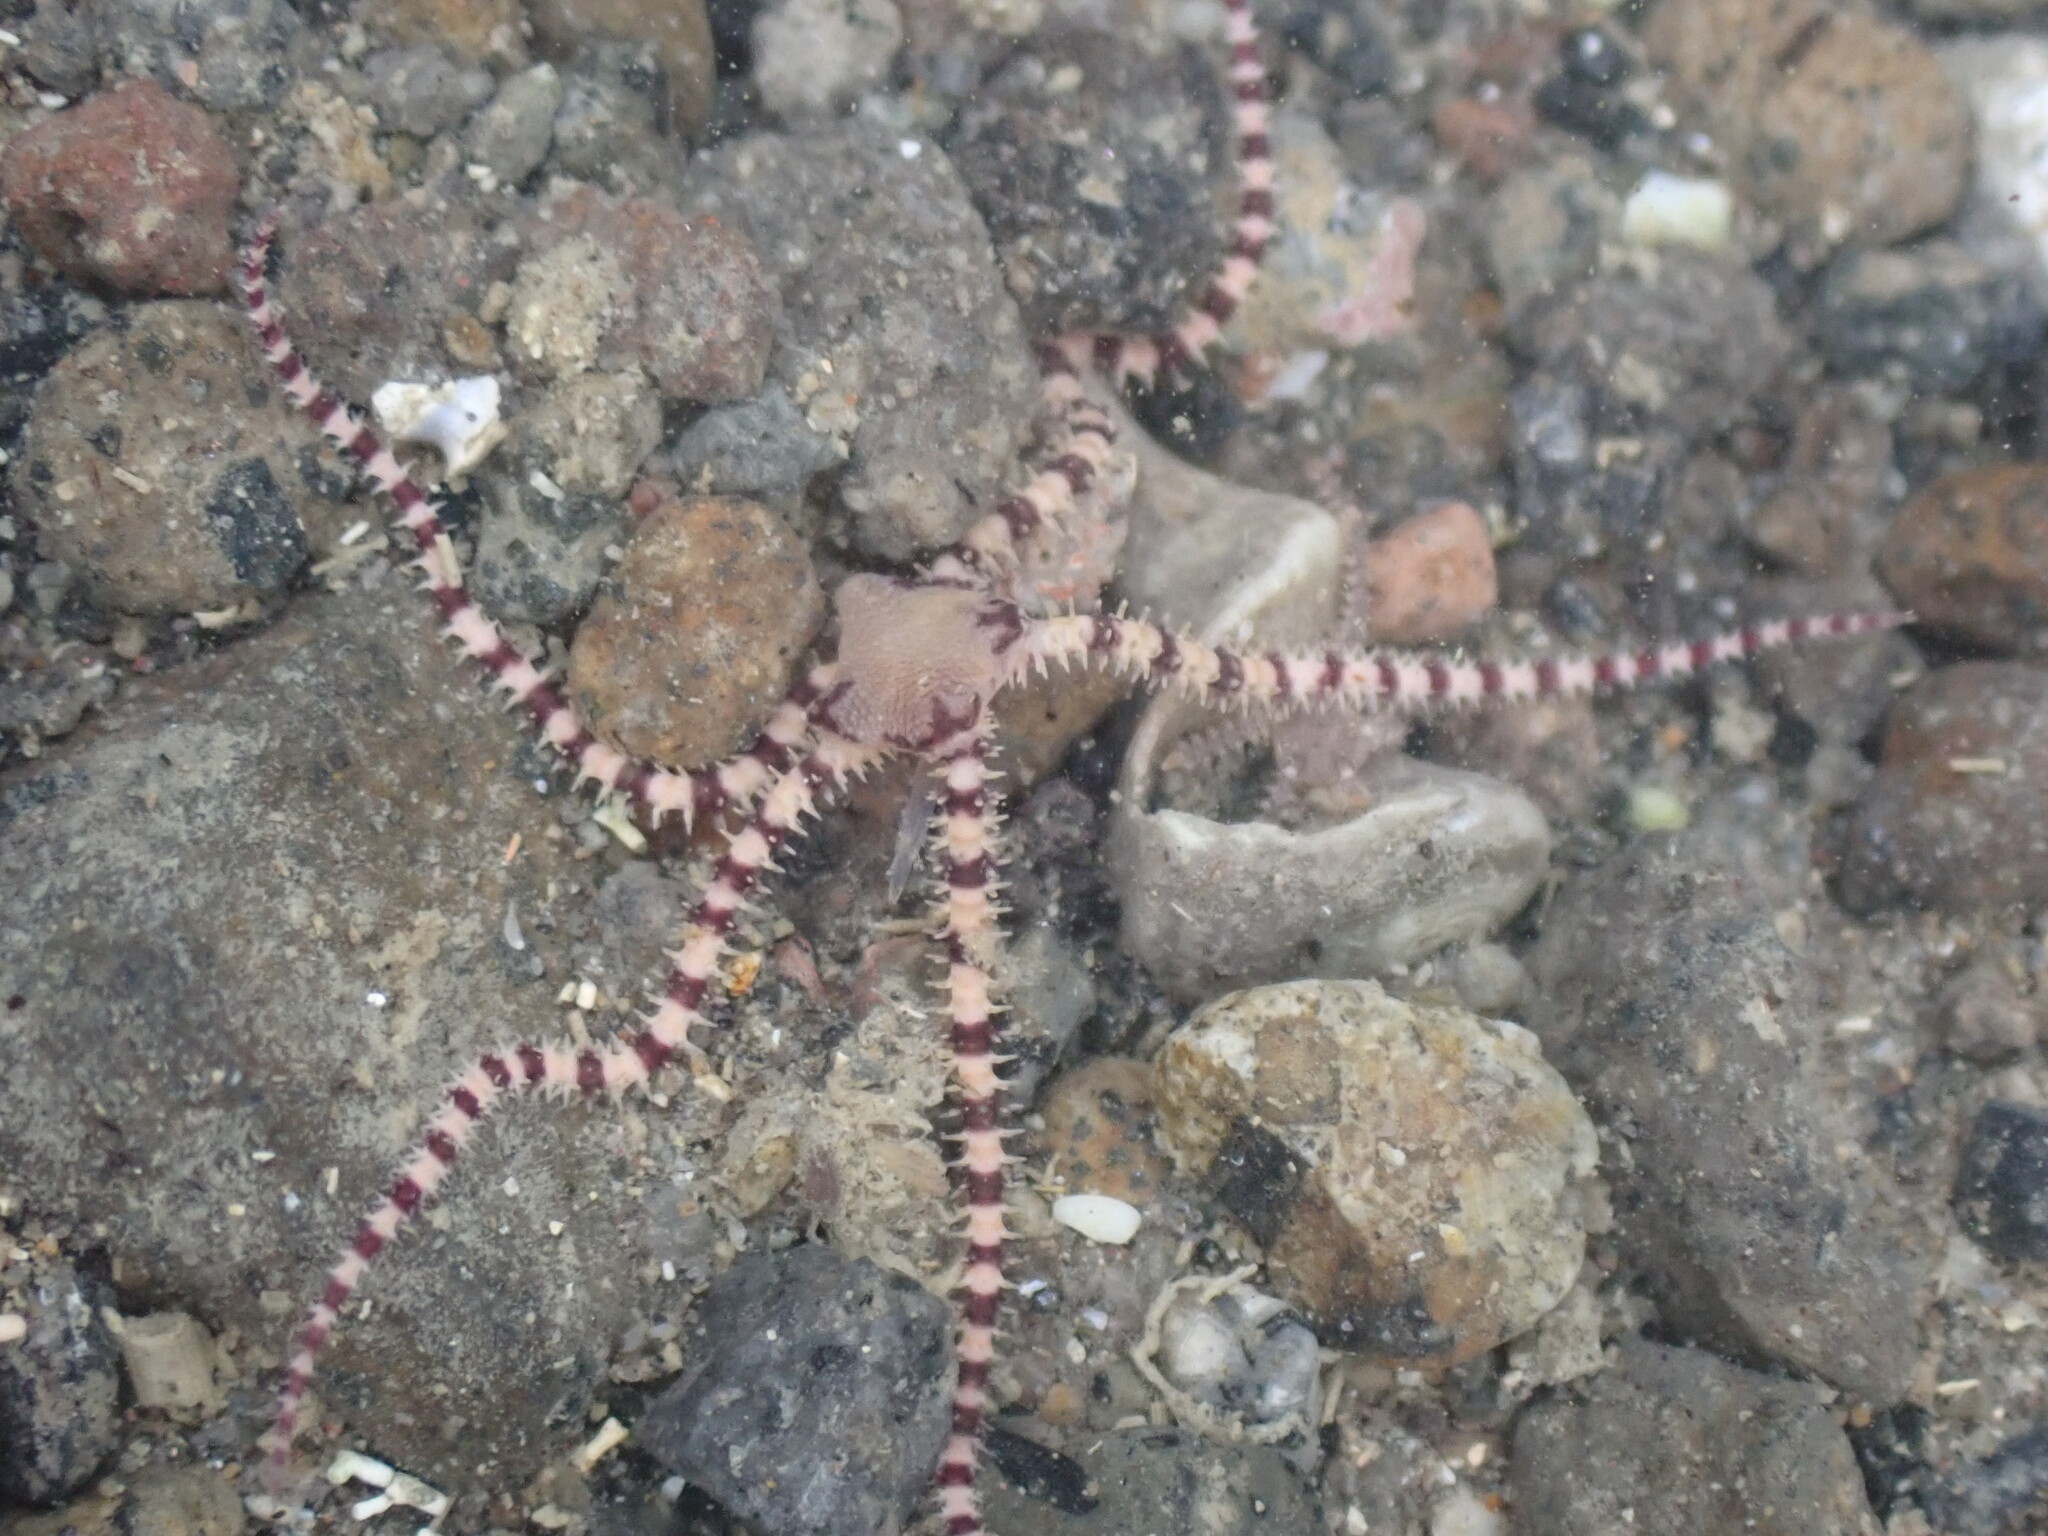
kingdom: Animalia
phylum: Echinodermata
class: Ophiuroidea
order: Amphilepidida
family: Ophionereididae
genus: Ophionereis
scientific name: Ophionereis fasciata
